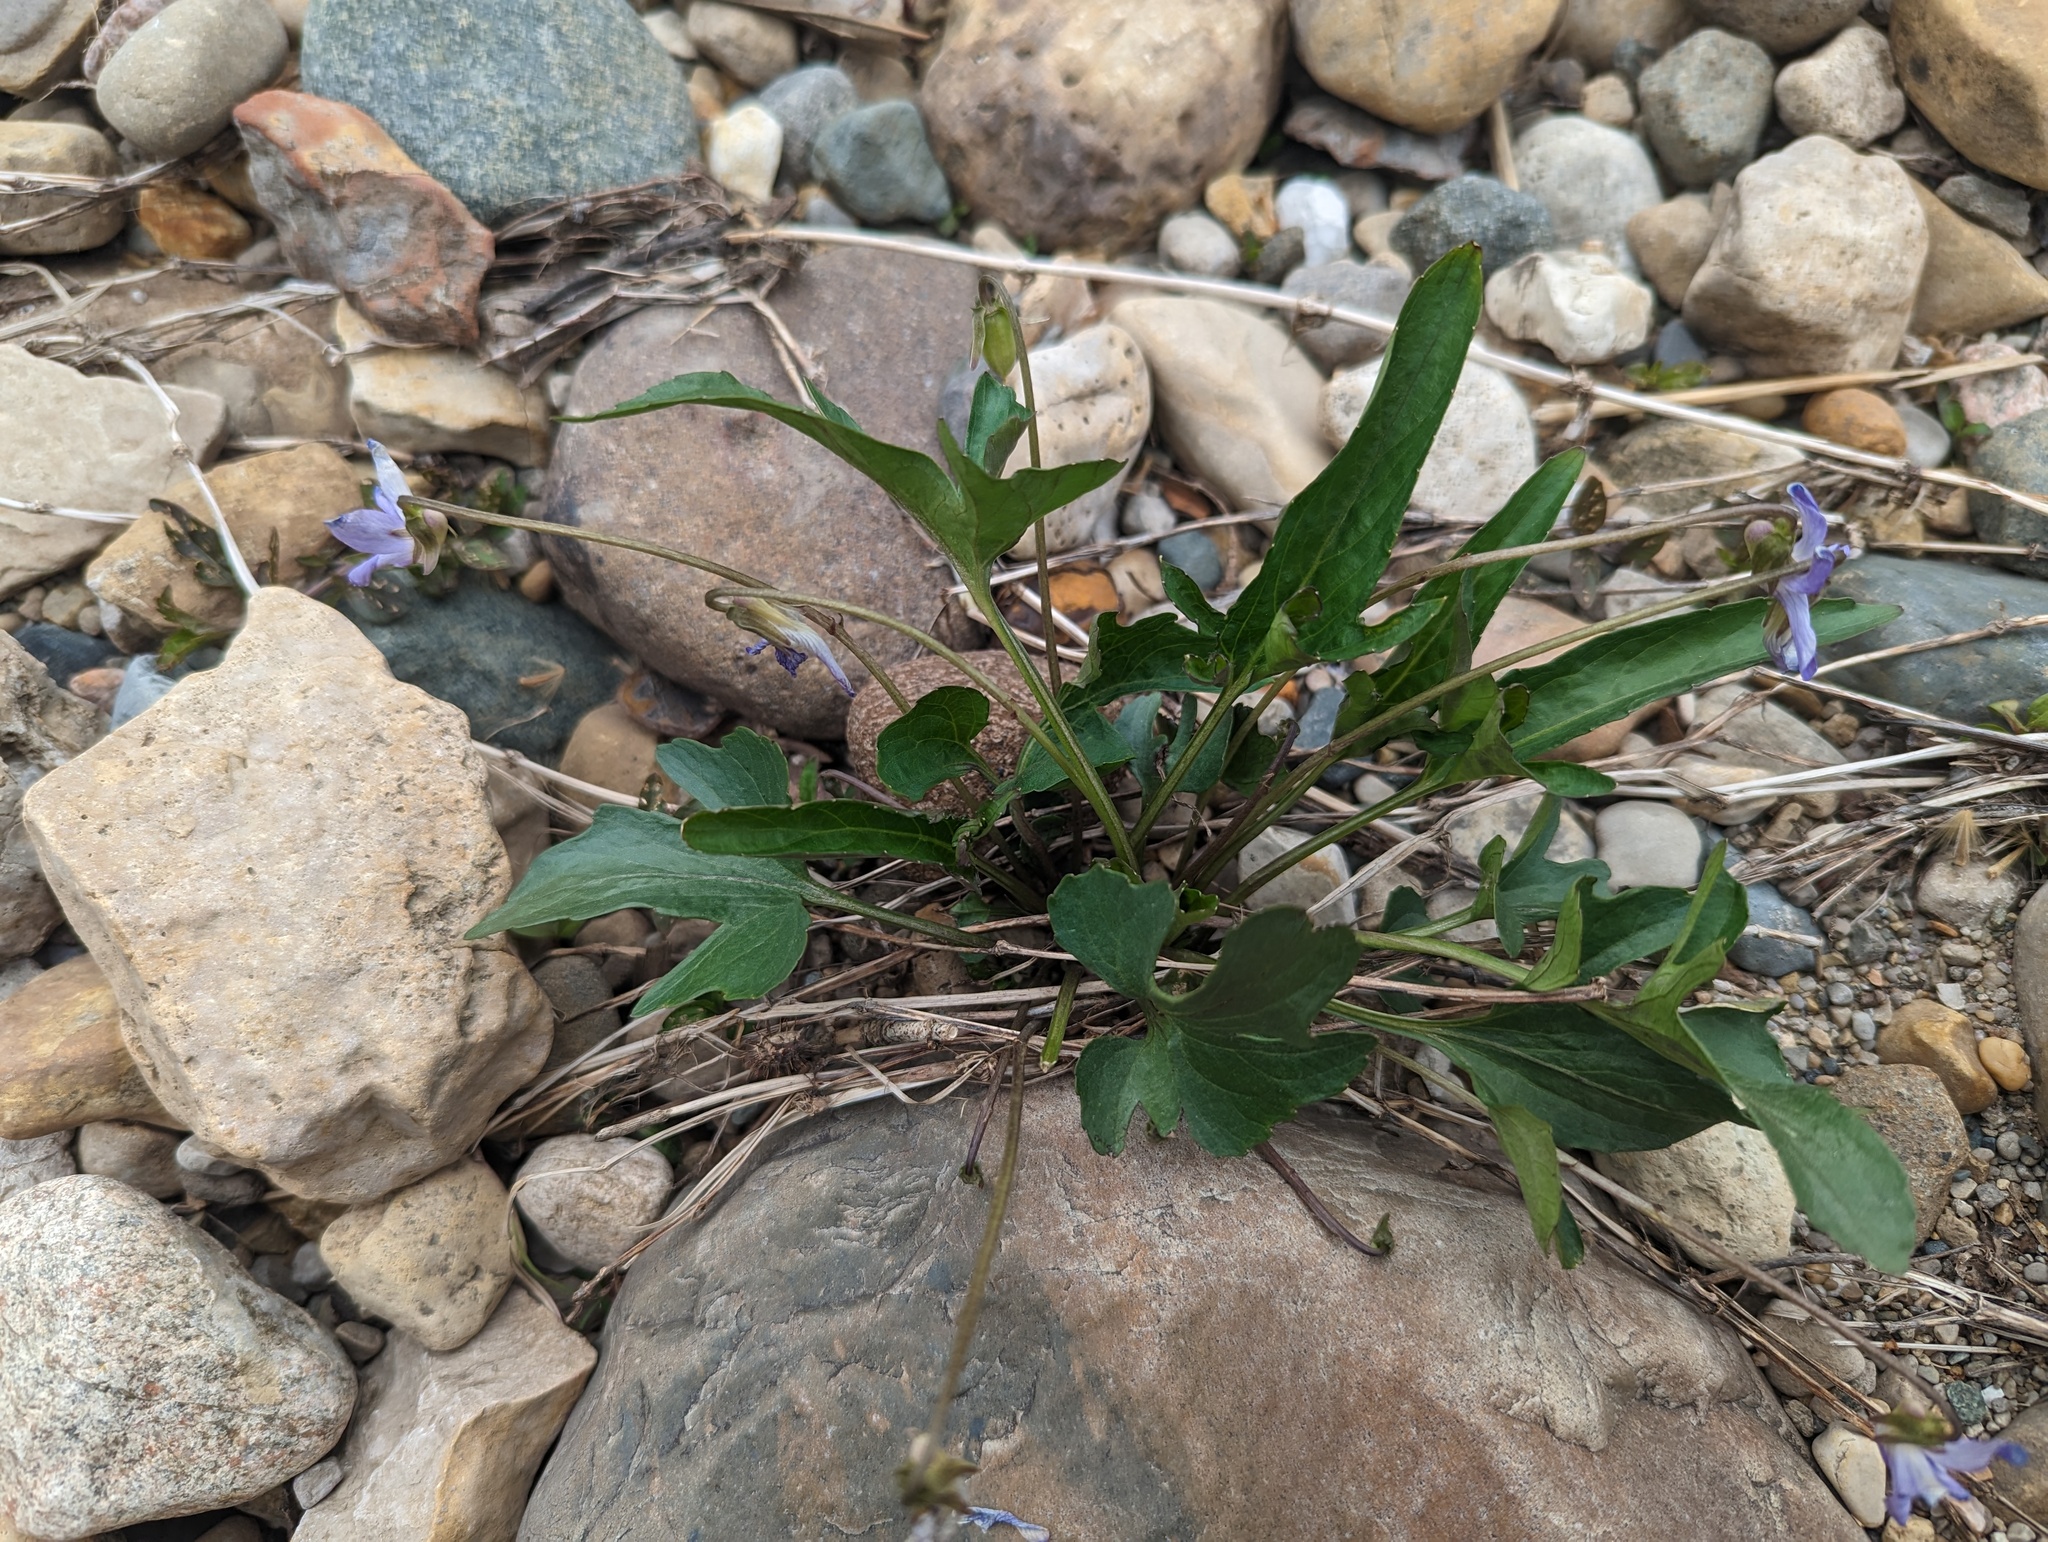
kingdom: Plantae
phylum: Tracheophyta
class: Magnoliopsida
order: Malpighiales
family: Violaceae
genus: Viola
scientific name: Viola viarum
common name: Twoflower violet
